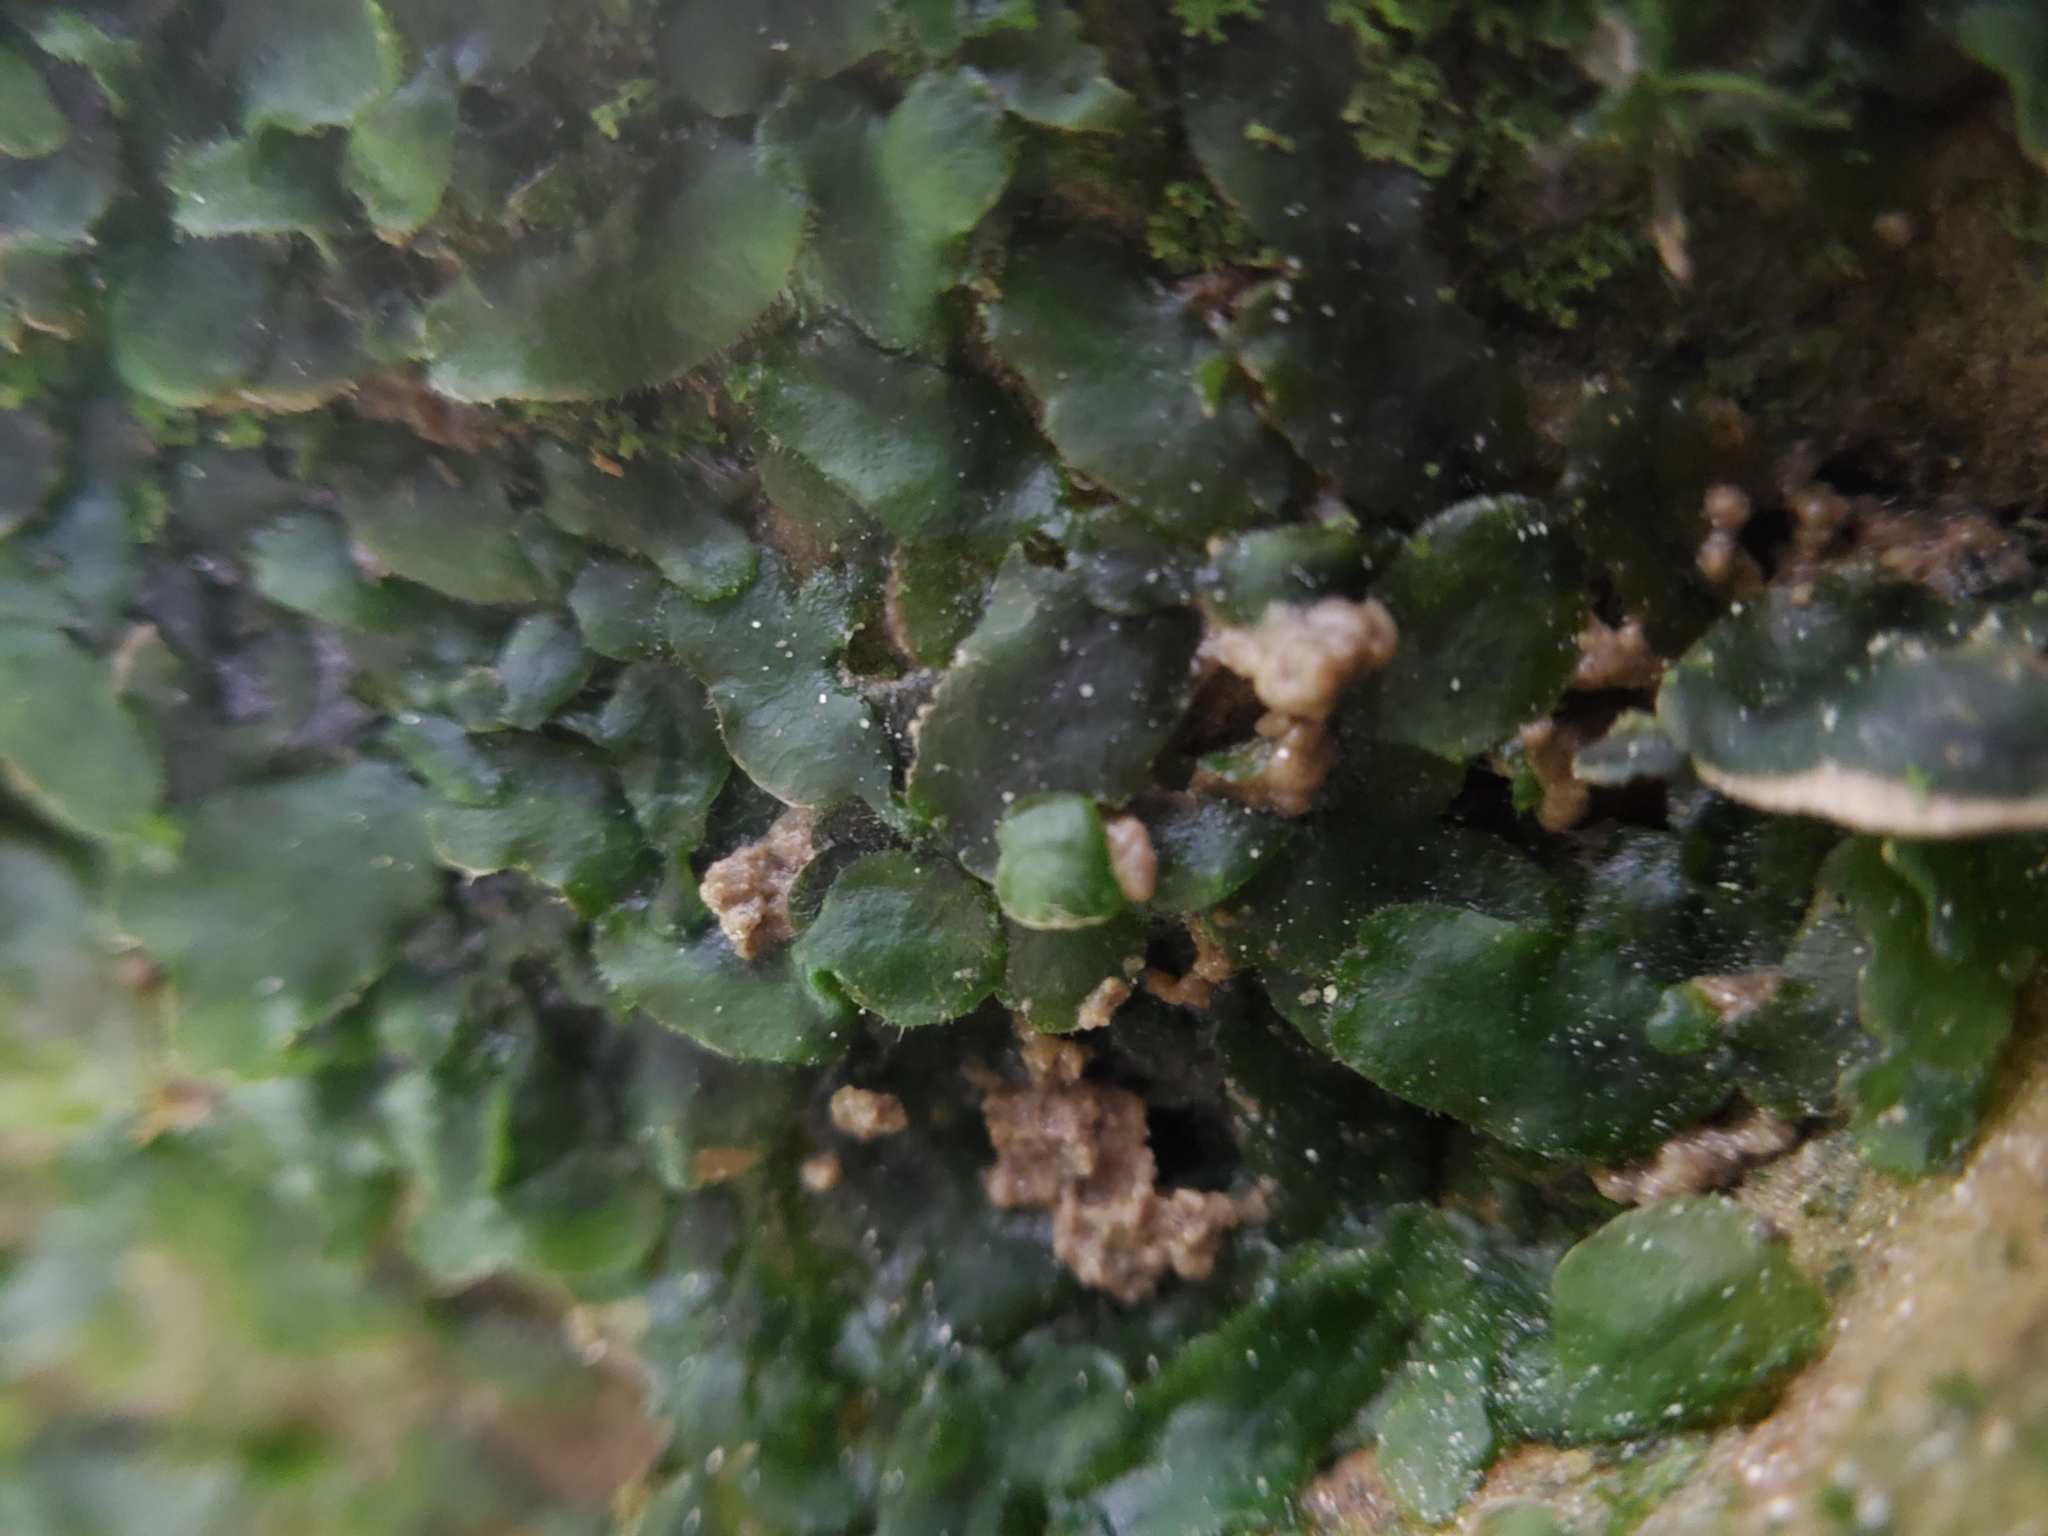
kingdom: Plantae
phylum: Marchantiophyta
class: Marchantiopsida
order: Marchantiales
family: Dumortieraceae
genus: Dumortiera
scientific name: Dumortiera hirsuta
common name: Dumortier's liverwort
